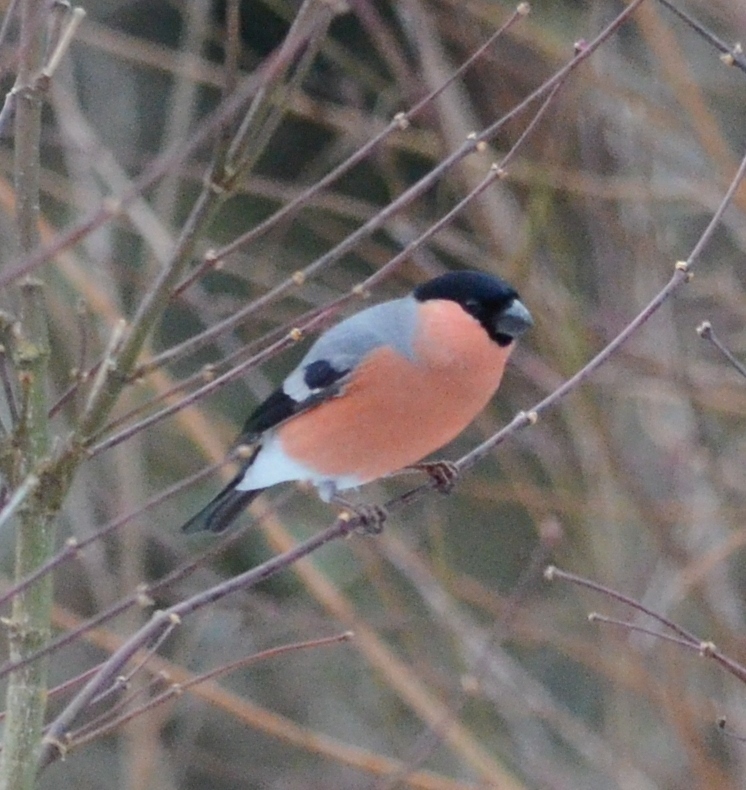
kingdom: Animalia
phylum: Chordata
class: Aves
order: Passeriformes
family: Fringillidae
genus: Pyrrhula
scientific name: Pyrrhula pyrrhula
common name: Eurasian bullfinch
